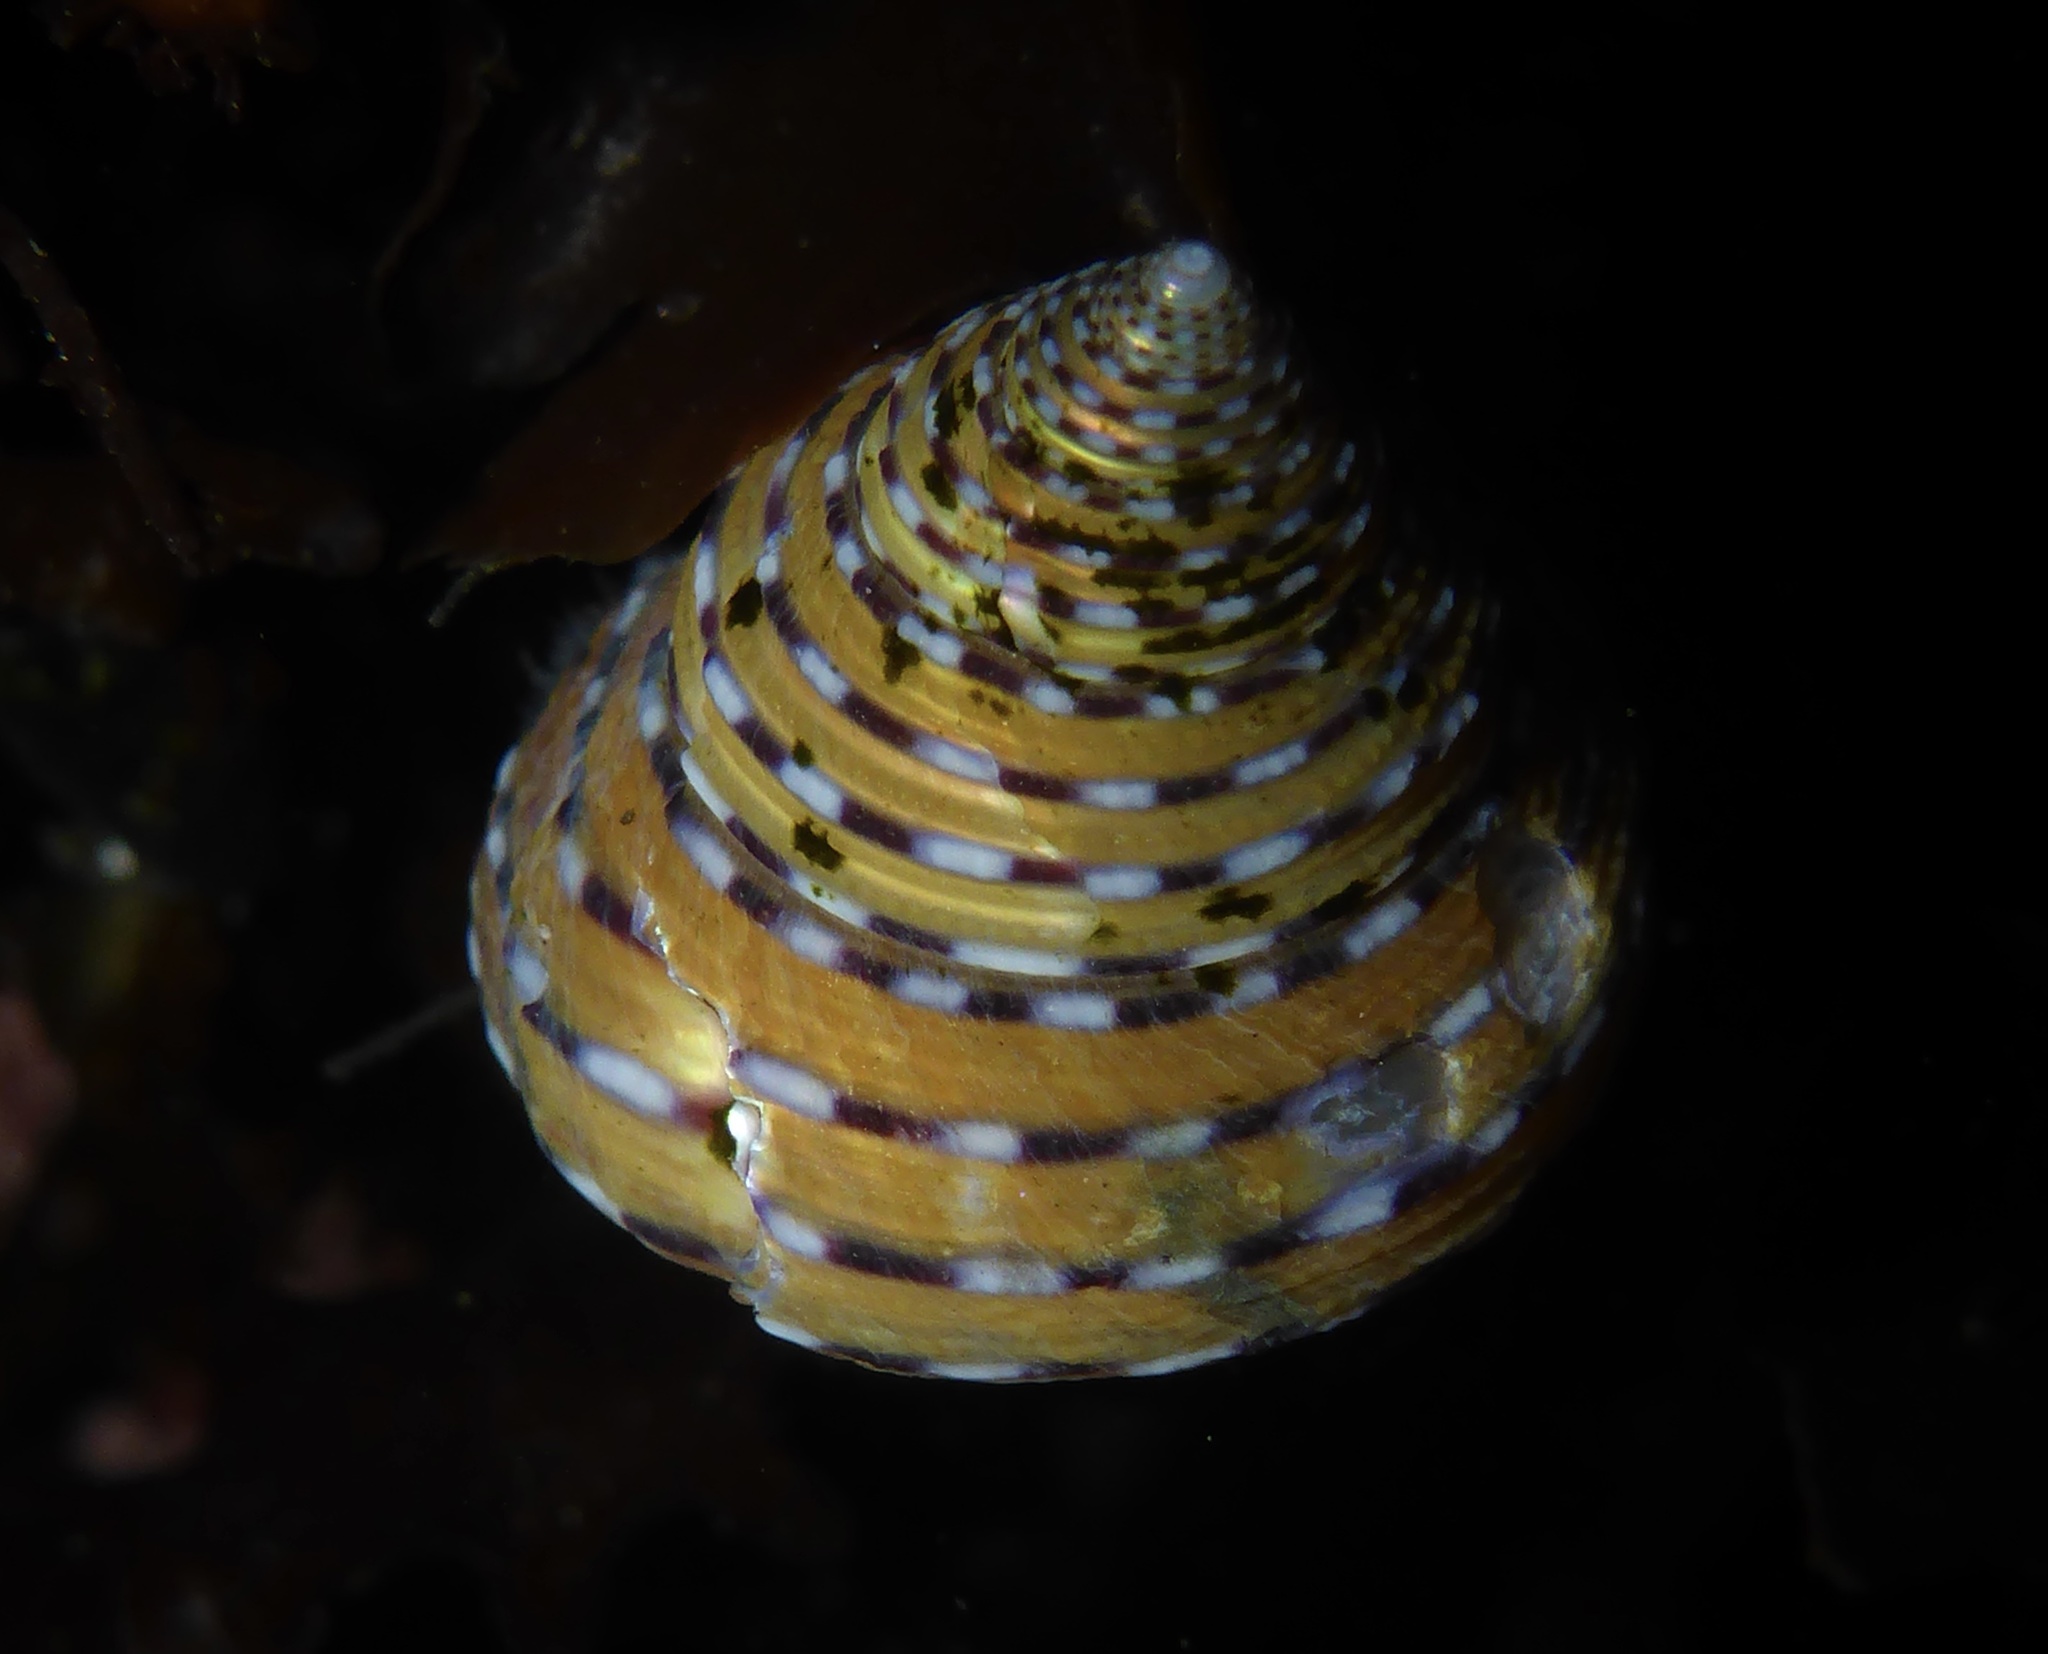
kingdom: Animalia
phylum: Mollusca
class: Gastropoda
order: Trochida
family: Calliostomatidae
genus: Calliostoma
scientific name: Calliostoma tricolor
